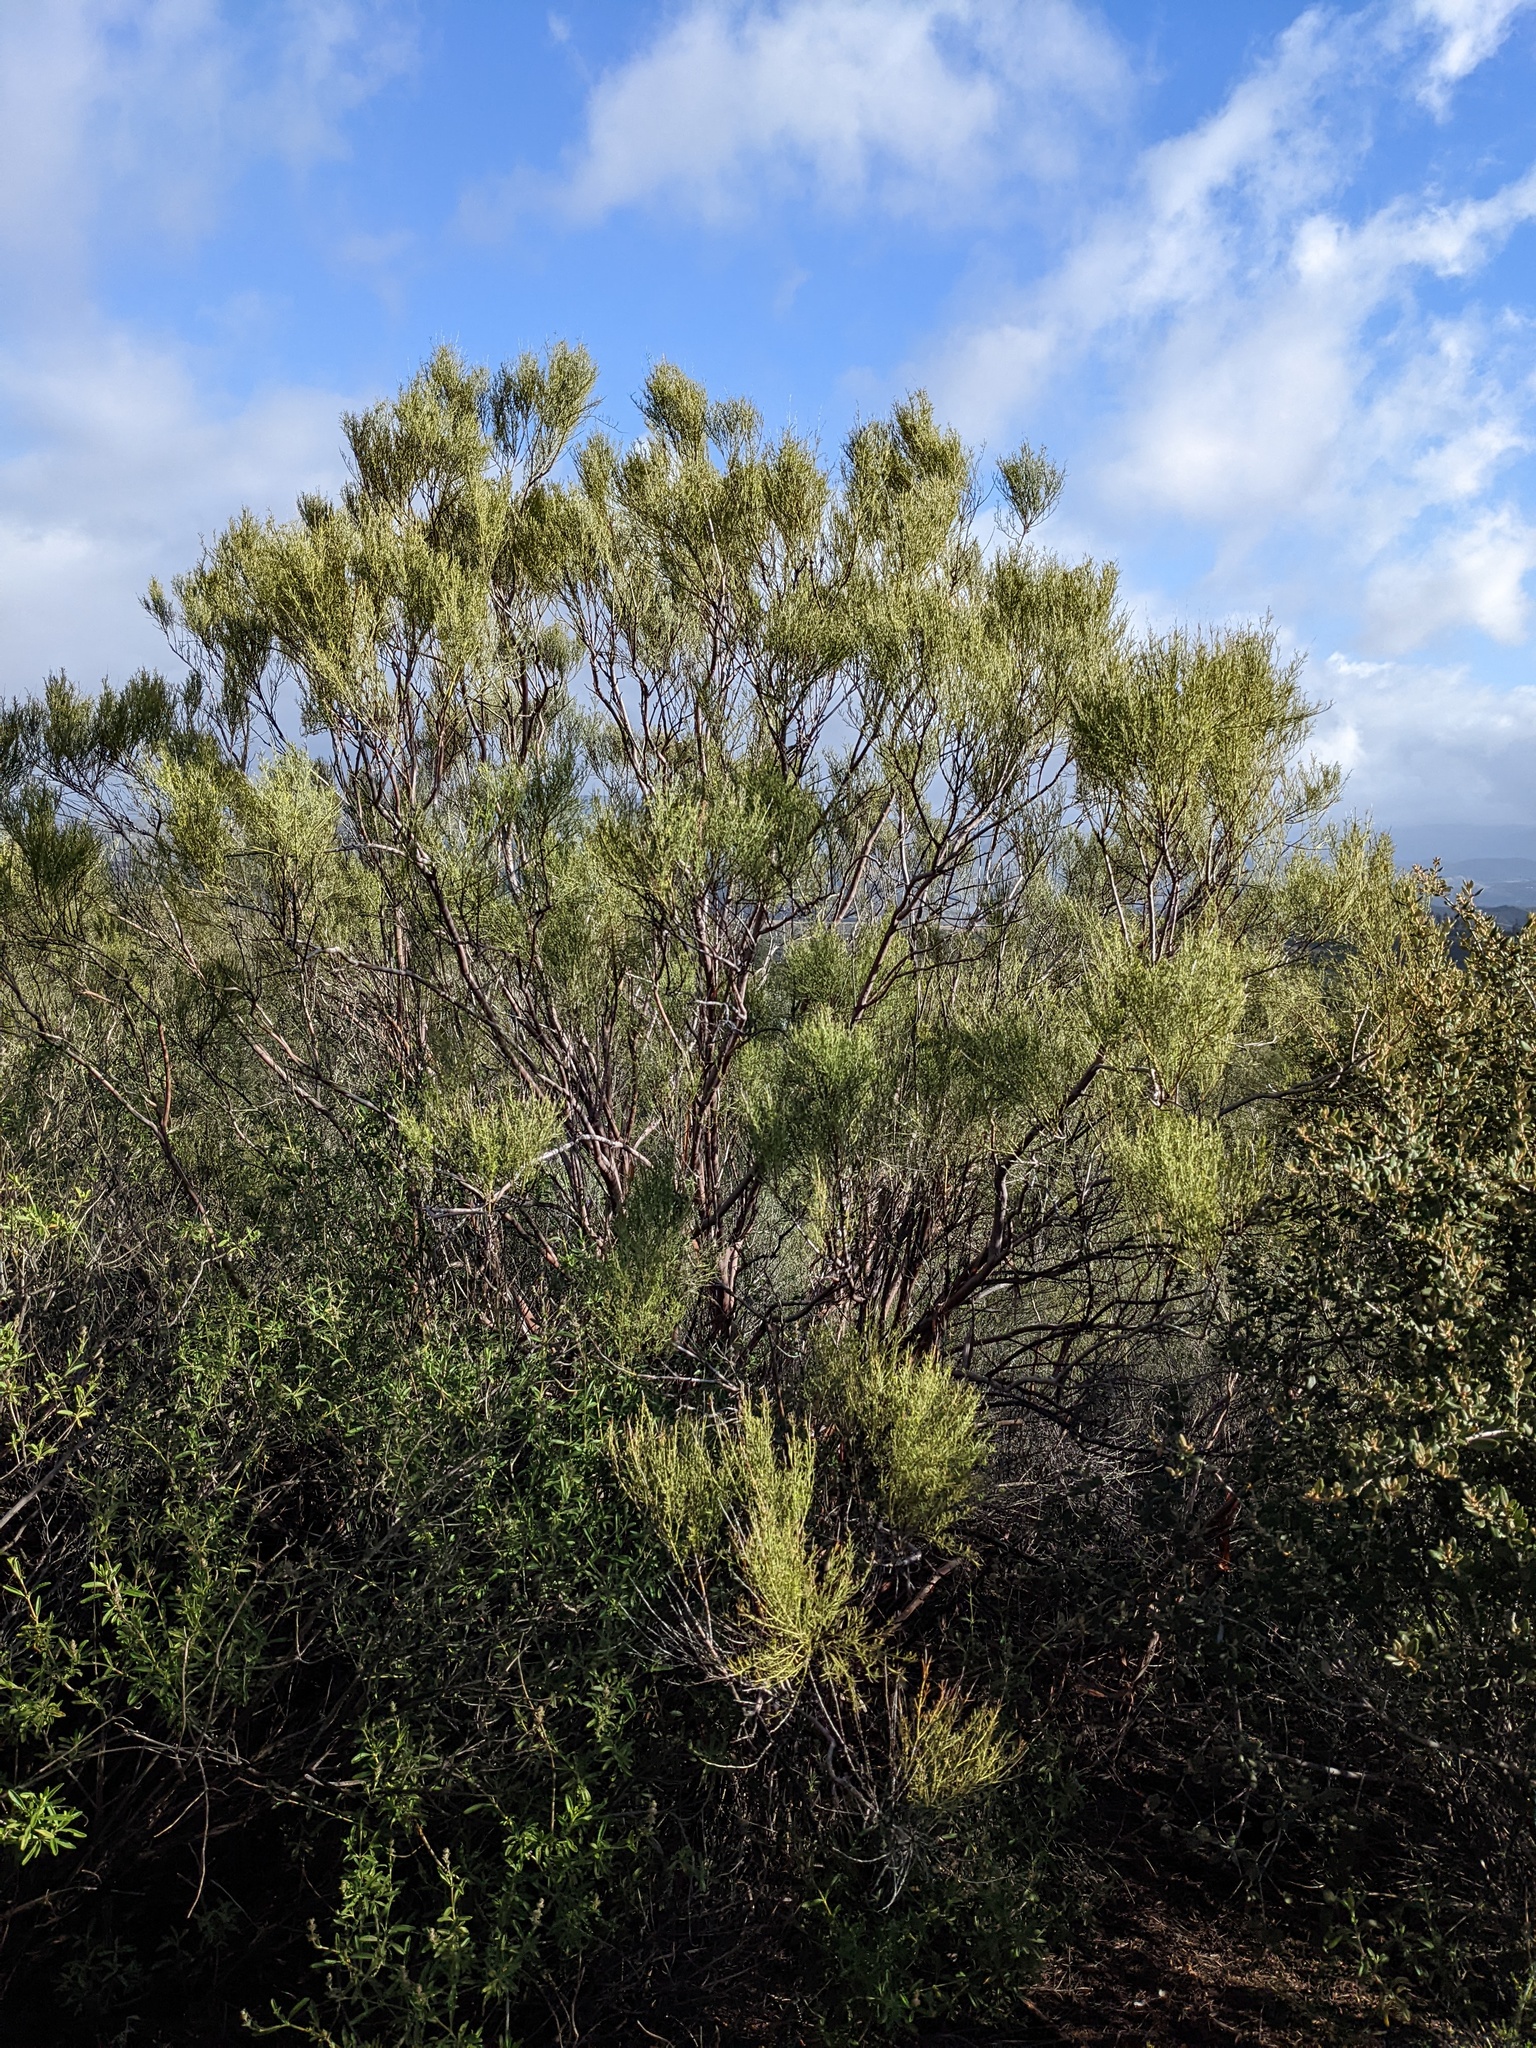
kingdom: Plantae
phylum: Tracheophyta
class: Magnoliopsida
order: Rosales
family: Rosaceae
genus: Adenostoma
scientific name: Adenostoma sparsifolium
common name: Red shank
